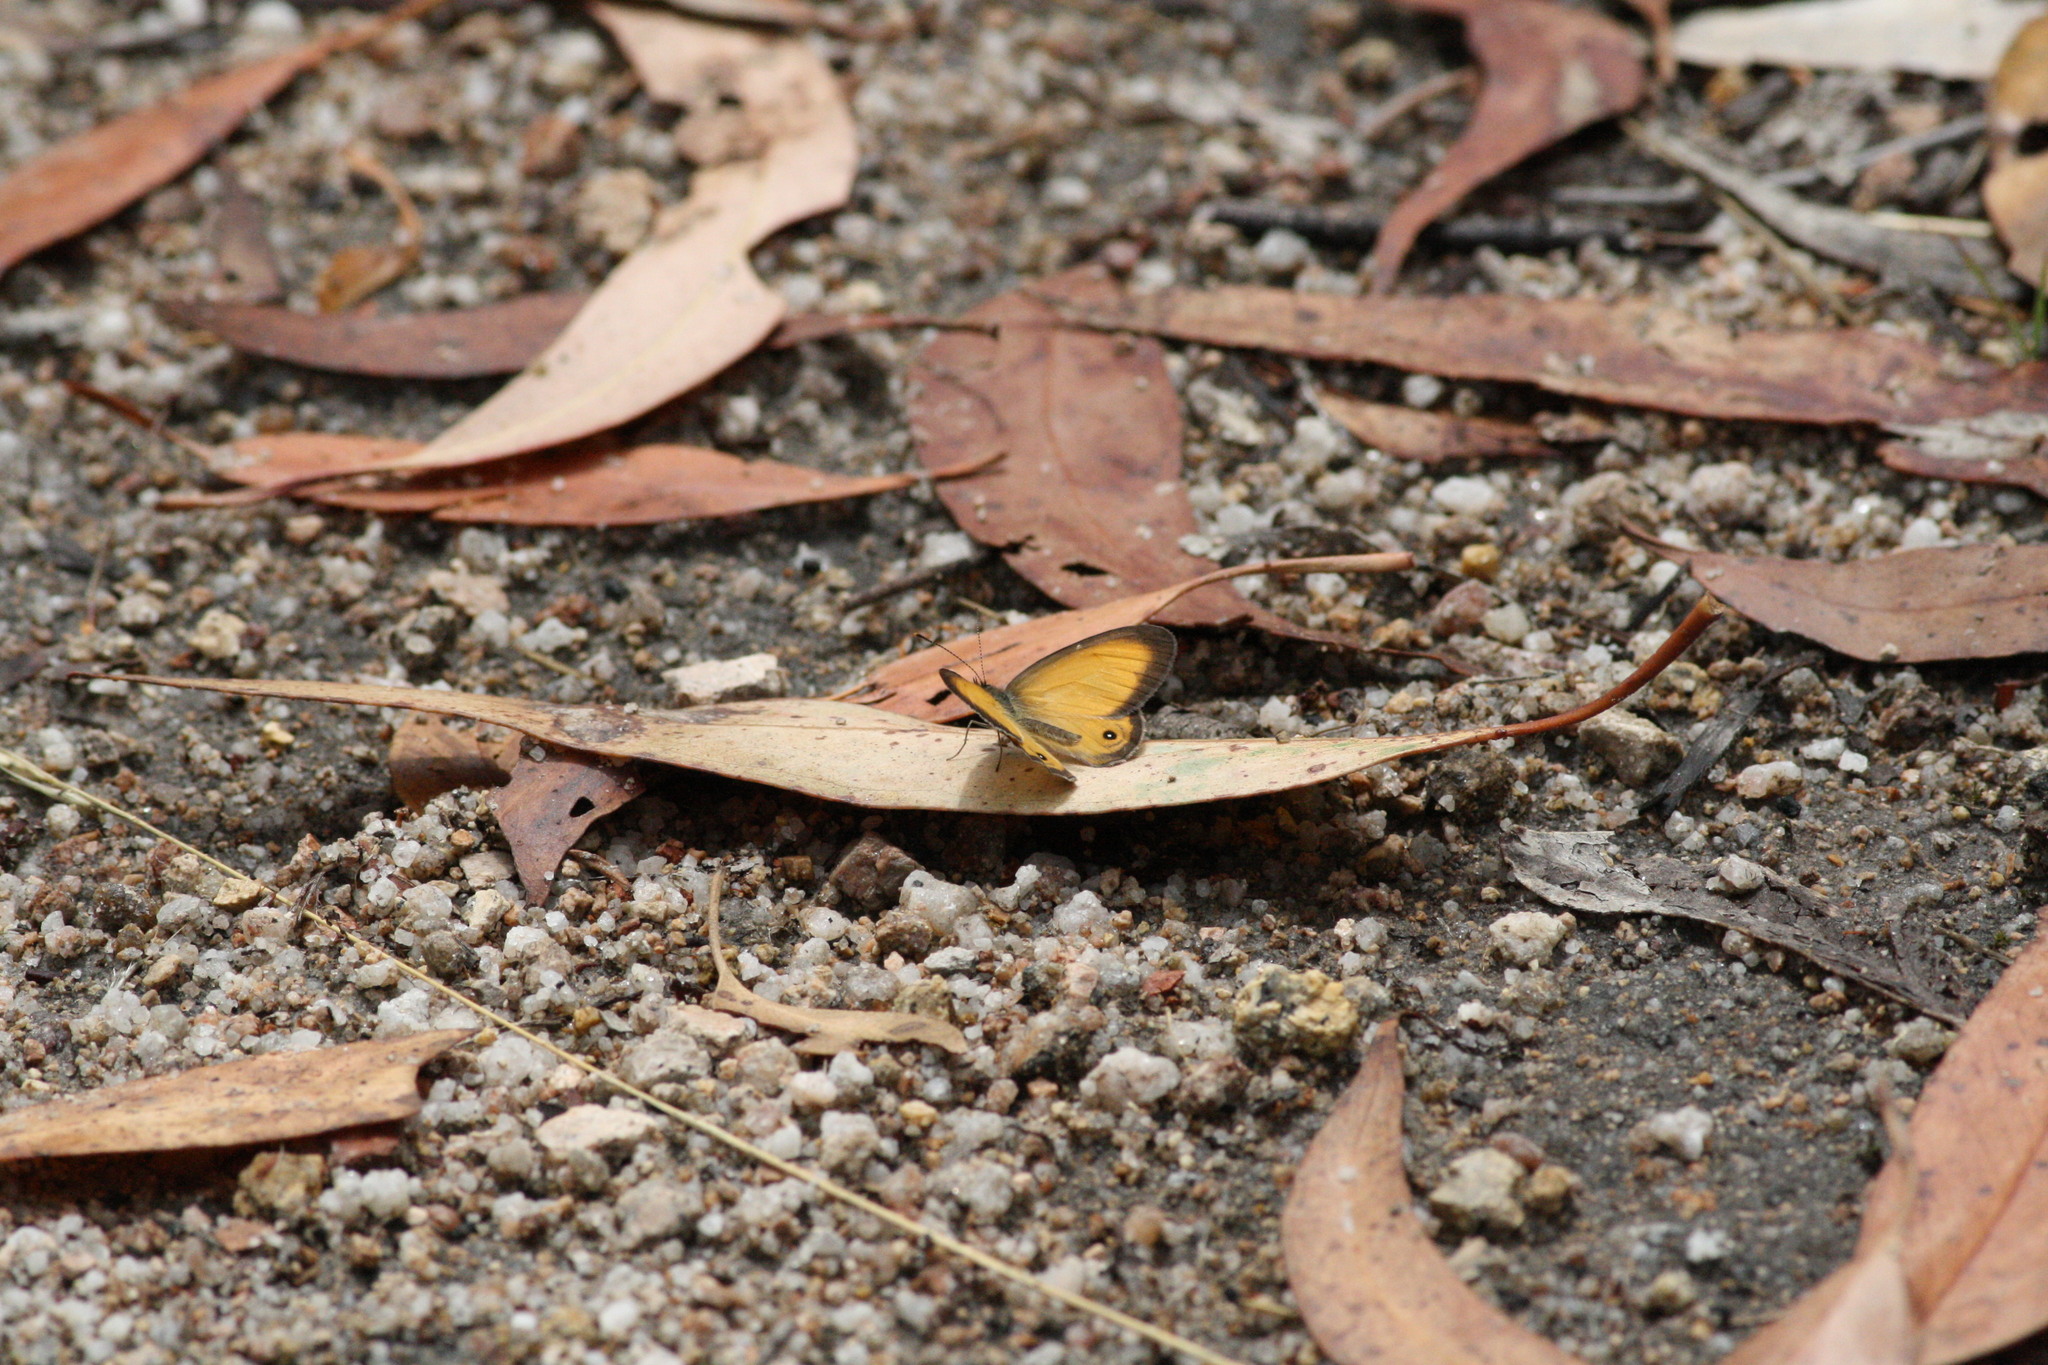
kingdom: Animalia
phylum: Arthropoda
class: Insecta
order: Lepidoptera
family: Nymphalidae
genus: Hypocysta
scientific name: Hypocysta adiante
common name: Orange ringlet
